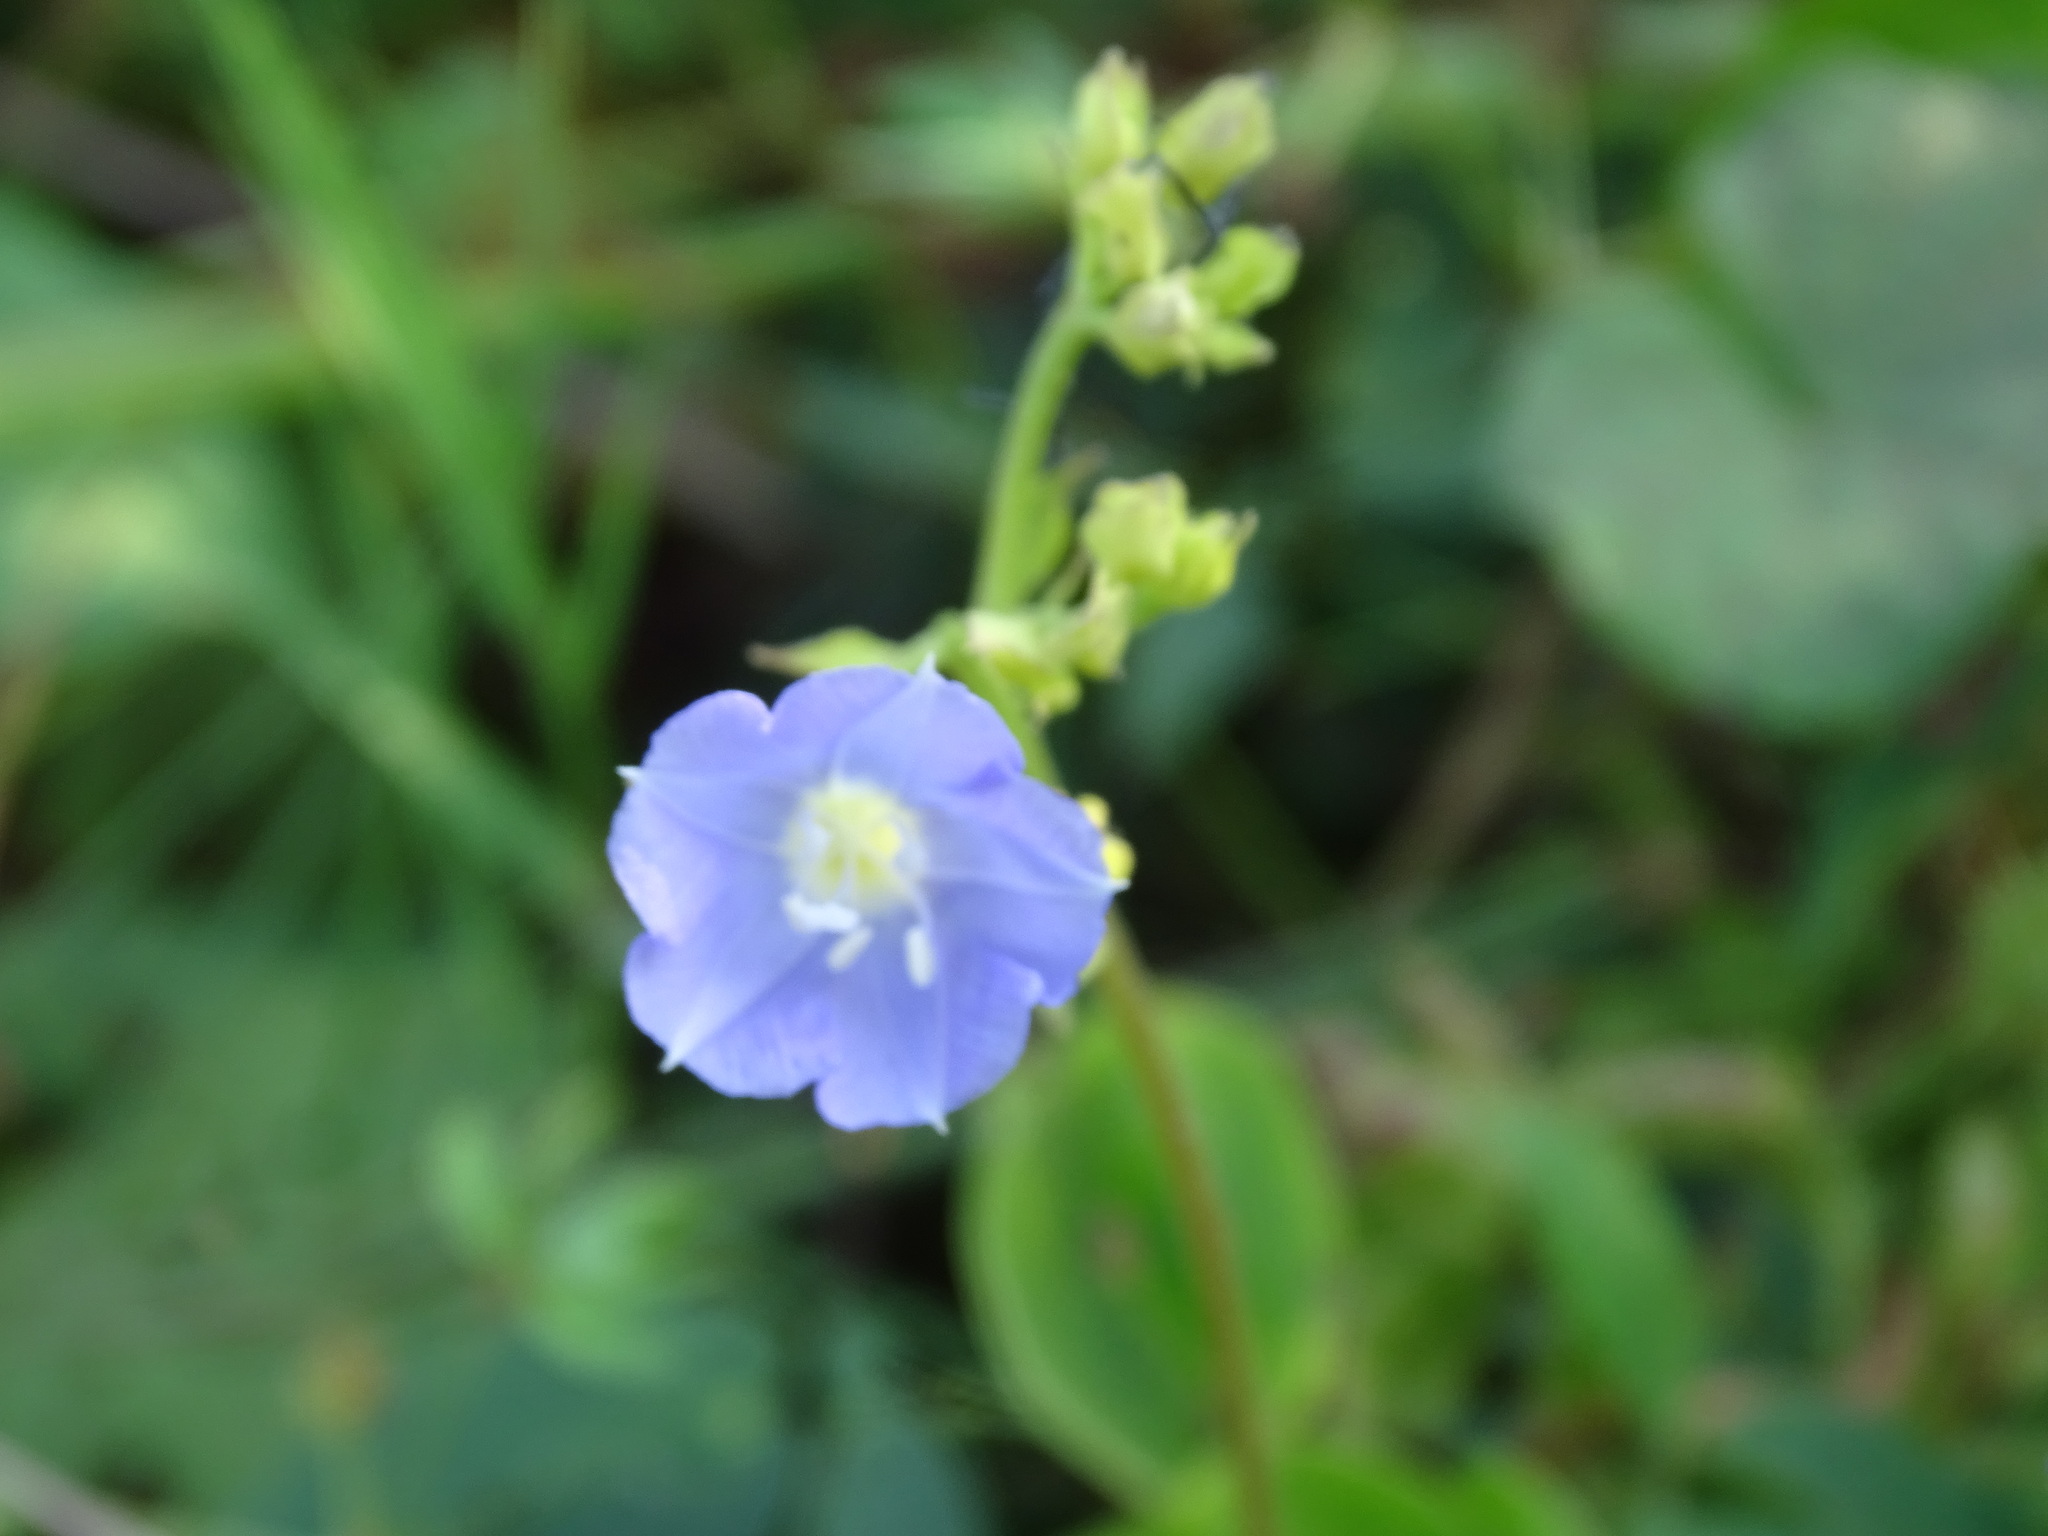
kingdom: Plantae
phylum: Tracheophyta
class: Magnoliopsida
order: Solanales
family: Convolvulaceae
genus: Jacquemontia
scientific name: Jacquemontia oaxacana
